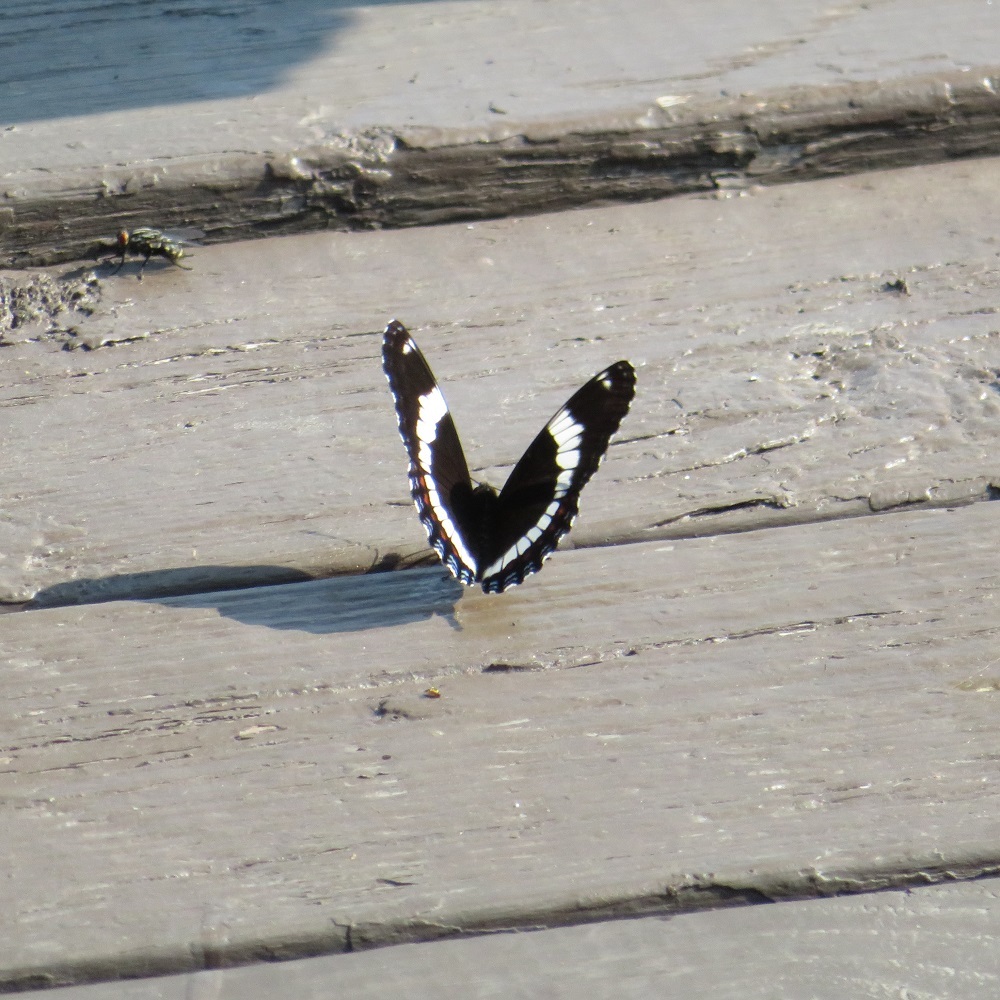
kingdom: Animalia
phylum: Arthropoda
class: Insecta
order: Lepidoptera
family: Nymphalidae
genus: Limenitis
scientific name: Limenitis arthemis
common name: Red-spotted admiral
